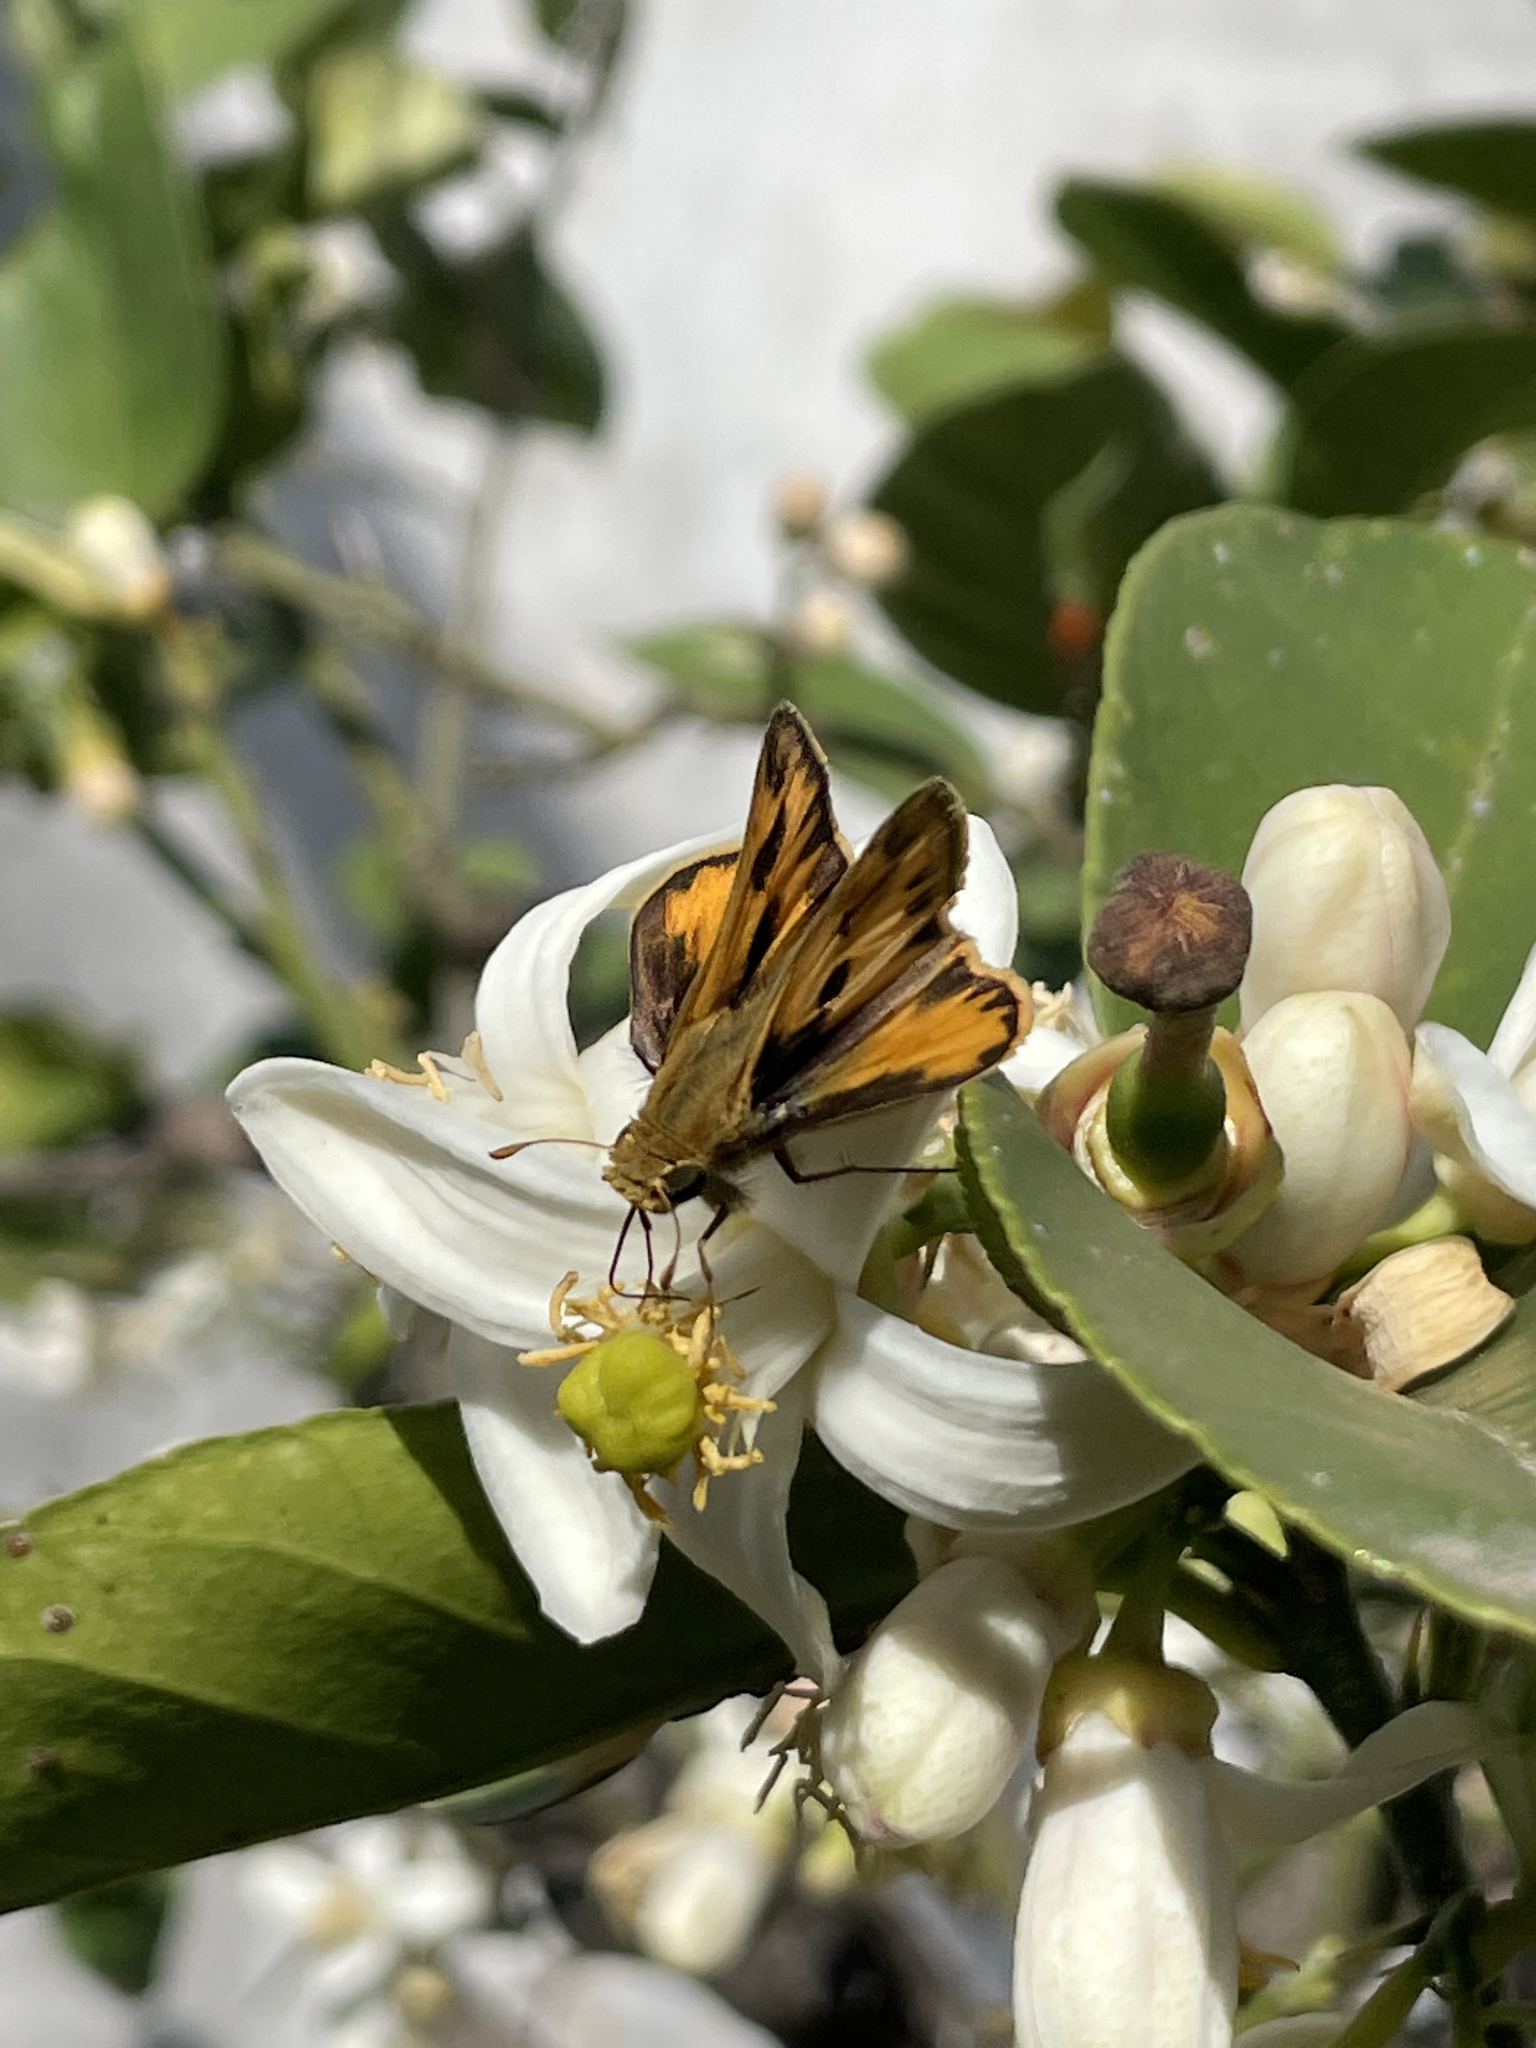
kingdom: Animalia
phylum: Arthropoda
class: Insecta
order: Lepidoptera
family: Hesperiidae
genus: Hylephila
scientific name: Hylephila phyleus
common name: Fiery skipper
